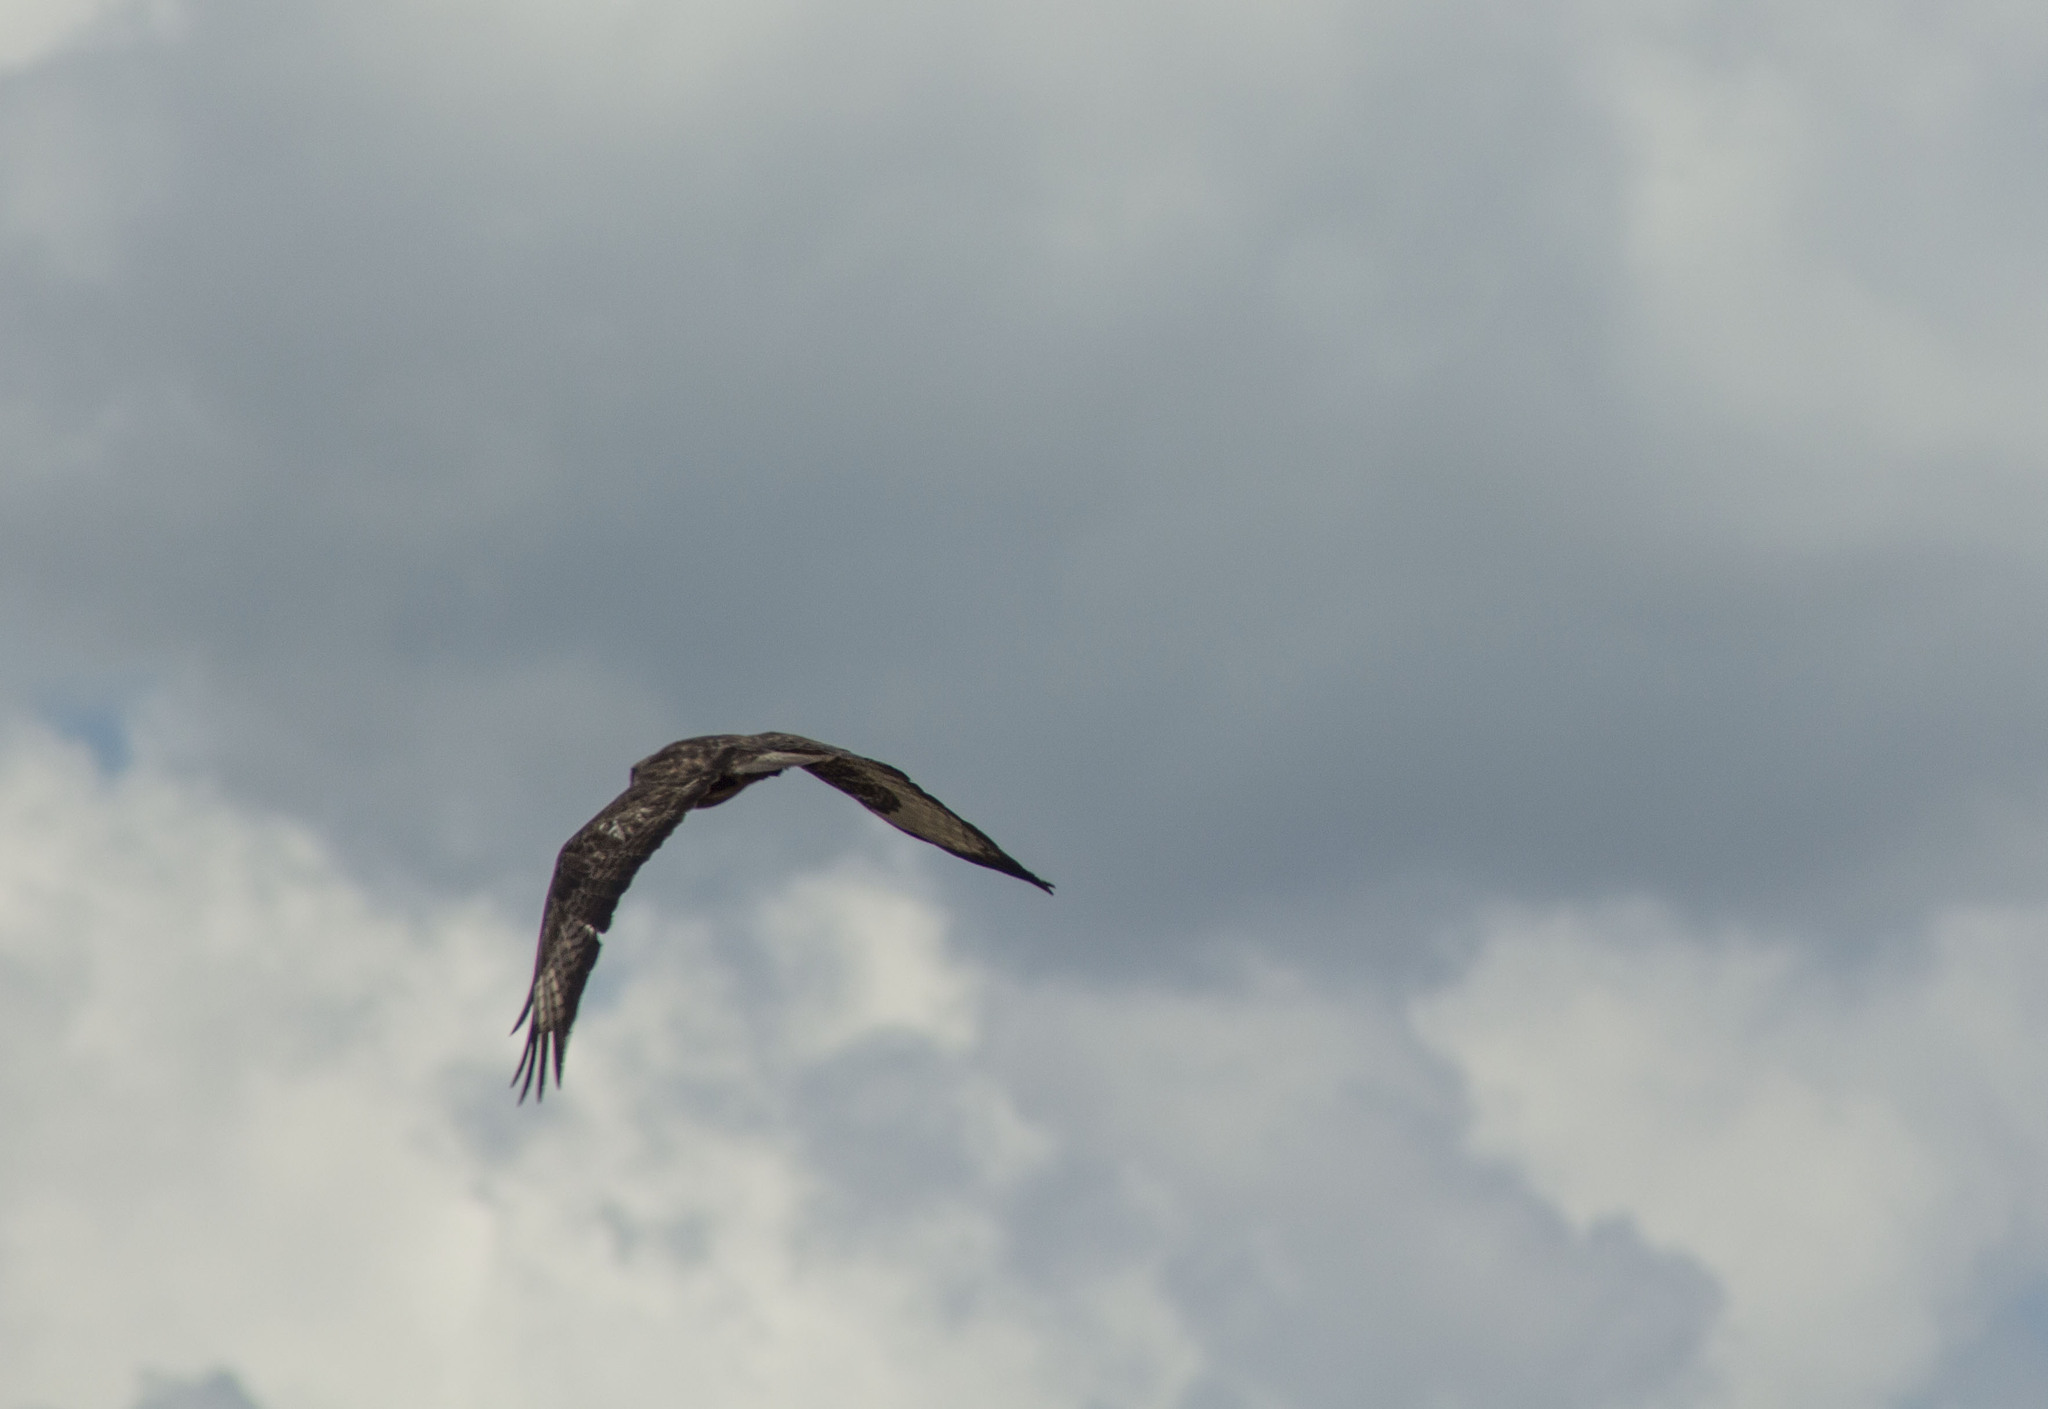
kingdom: Animalia
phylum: Chordata
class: Aves
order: Accipitriformes
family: Accipitridae
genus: Buteo
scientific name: Buteo buteo
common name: Common buzzard
